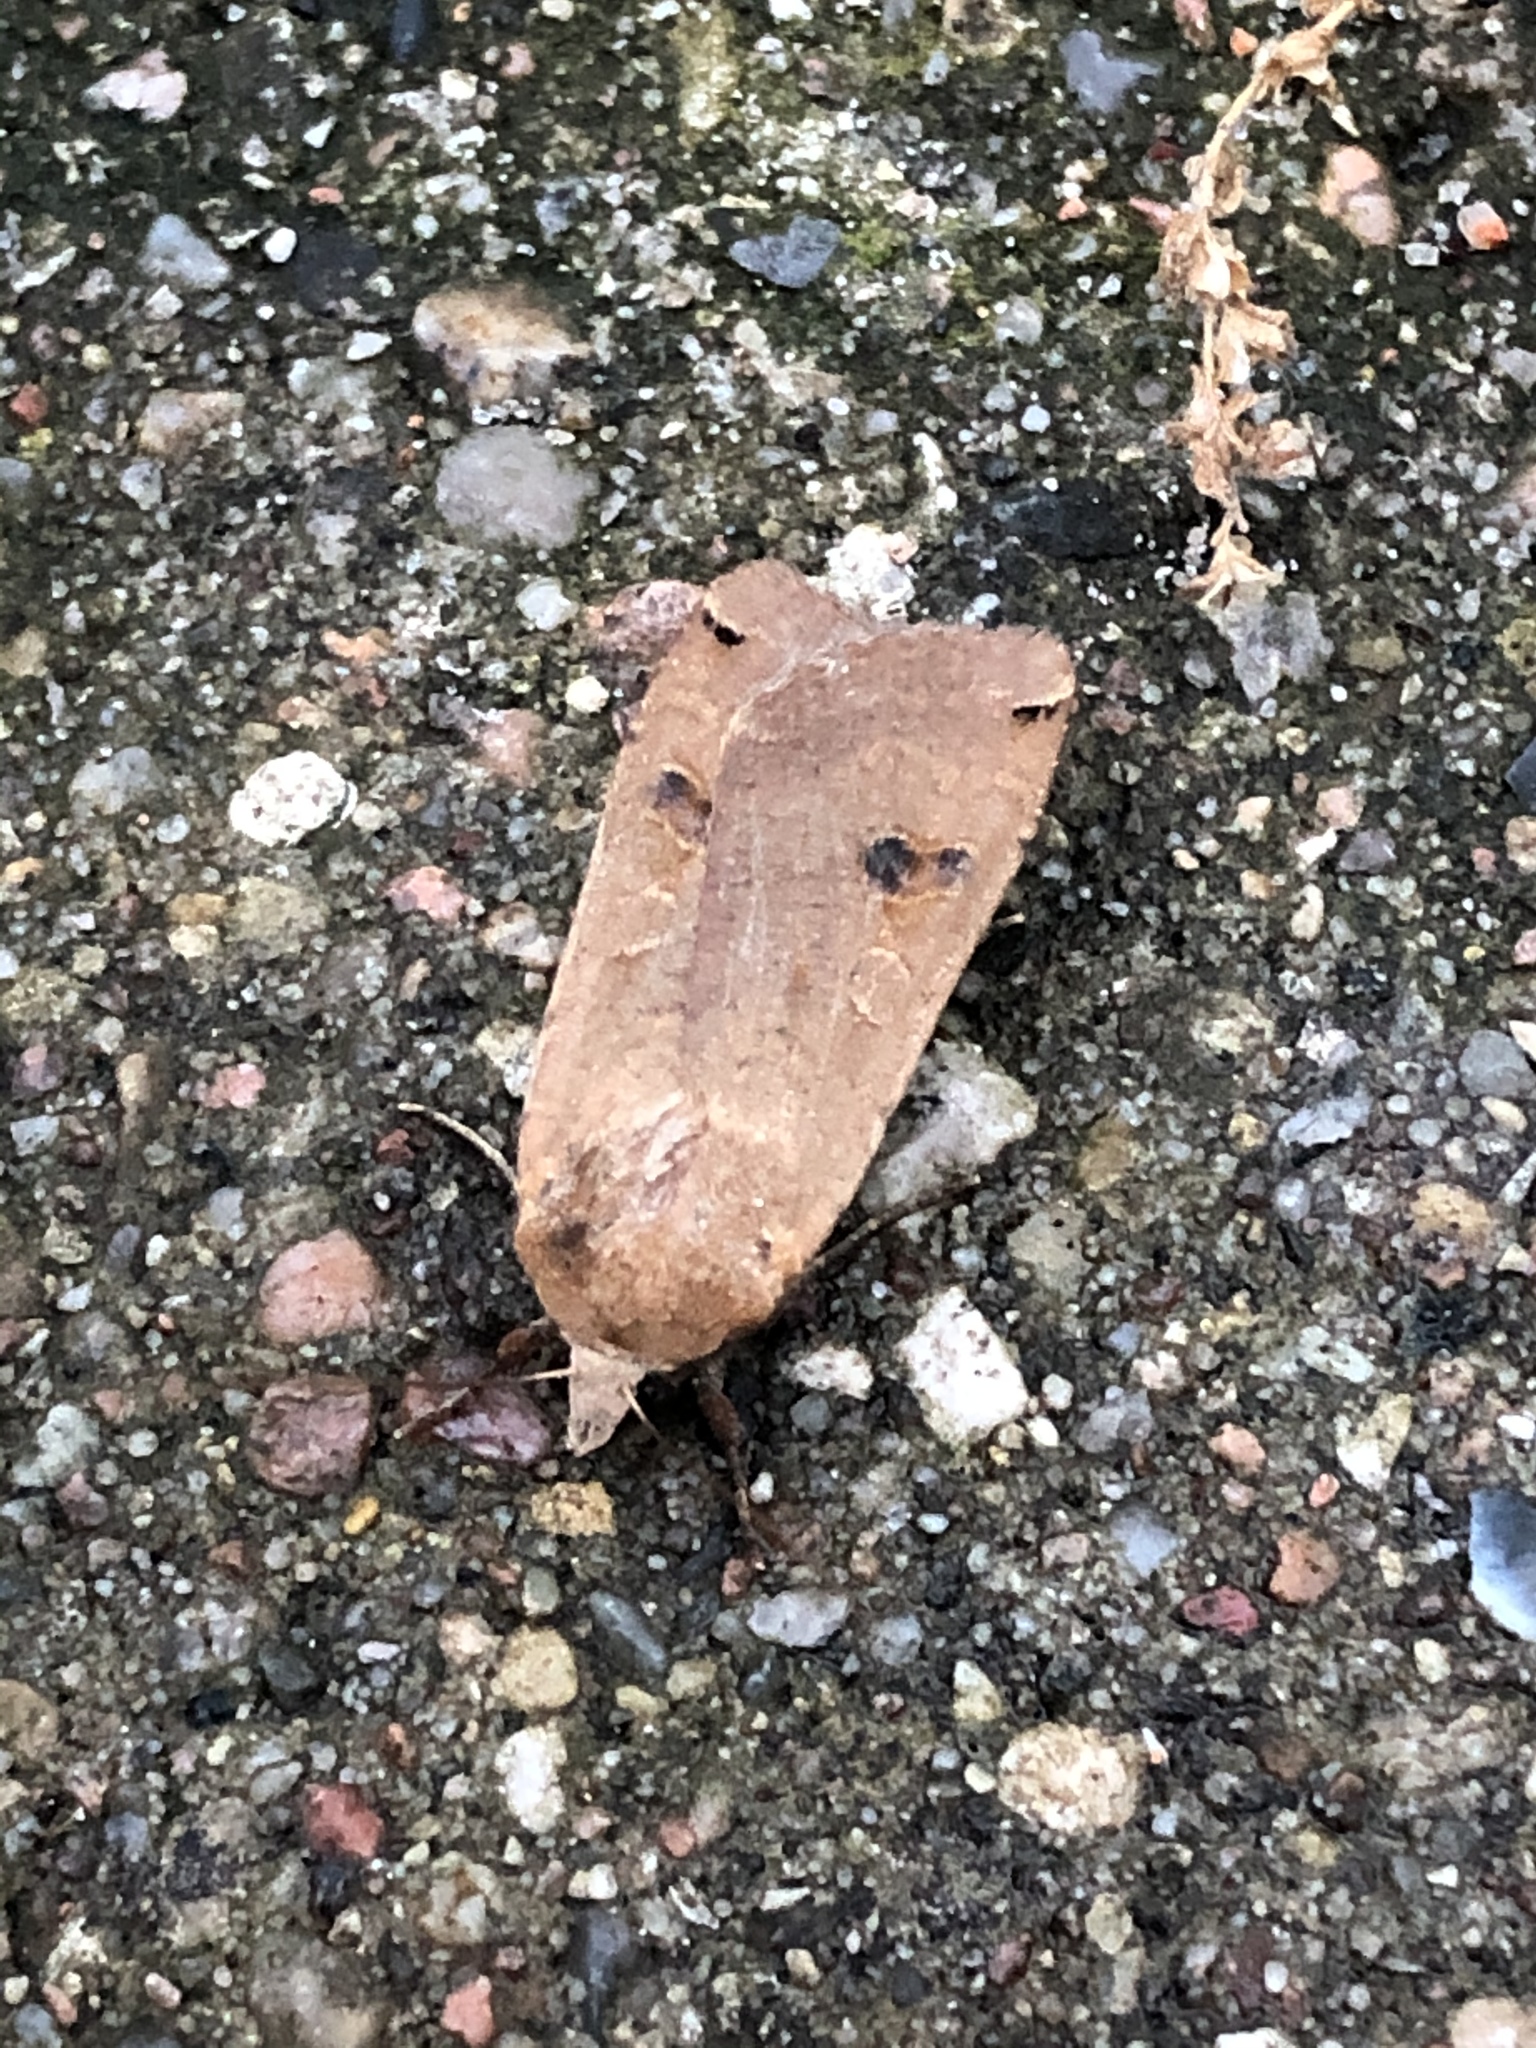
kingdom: Animalia
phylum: Arthropoda
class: Insecta
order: Lepidoptera
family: Noctuidae
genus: Noctua
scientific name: Noctua pronuba
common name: Large yellow underwing
